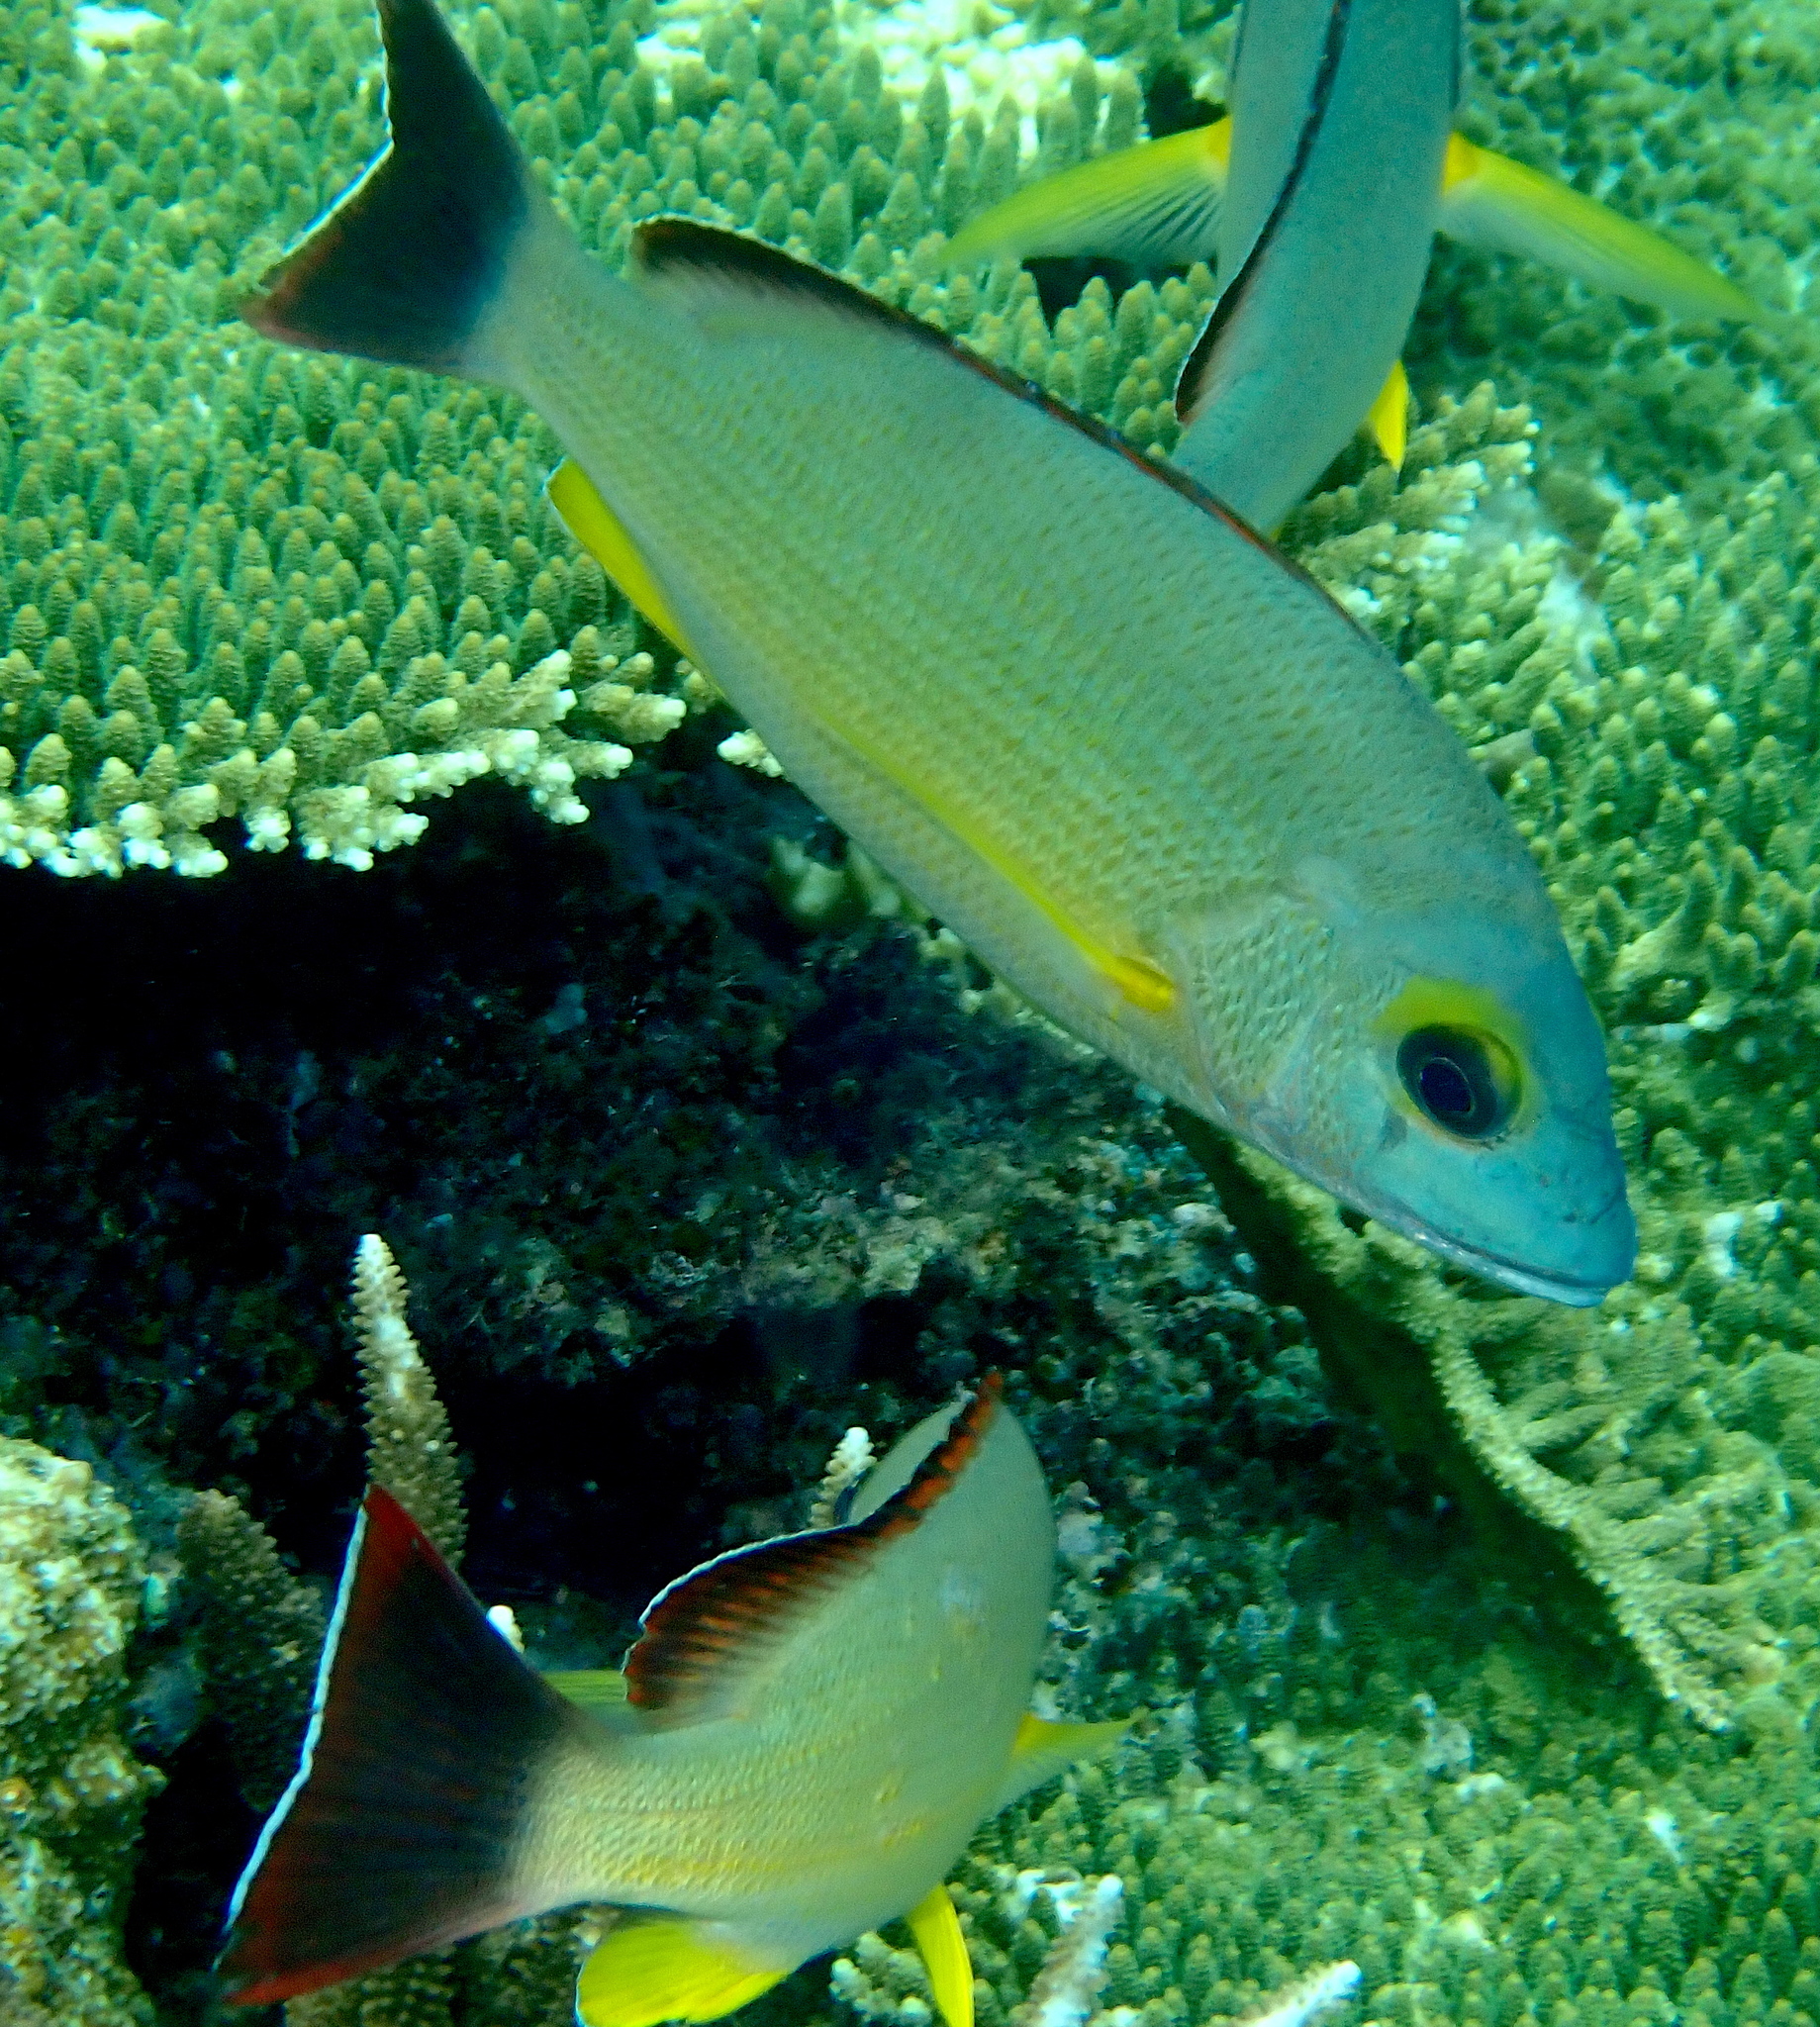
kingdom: Animalia
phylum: Chordata
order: Perciformes
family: Lutjanidae
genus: Lutjanus
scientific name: Lutjanus fulvus
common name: Blacktail snapper
